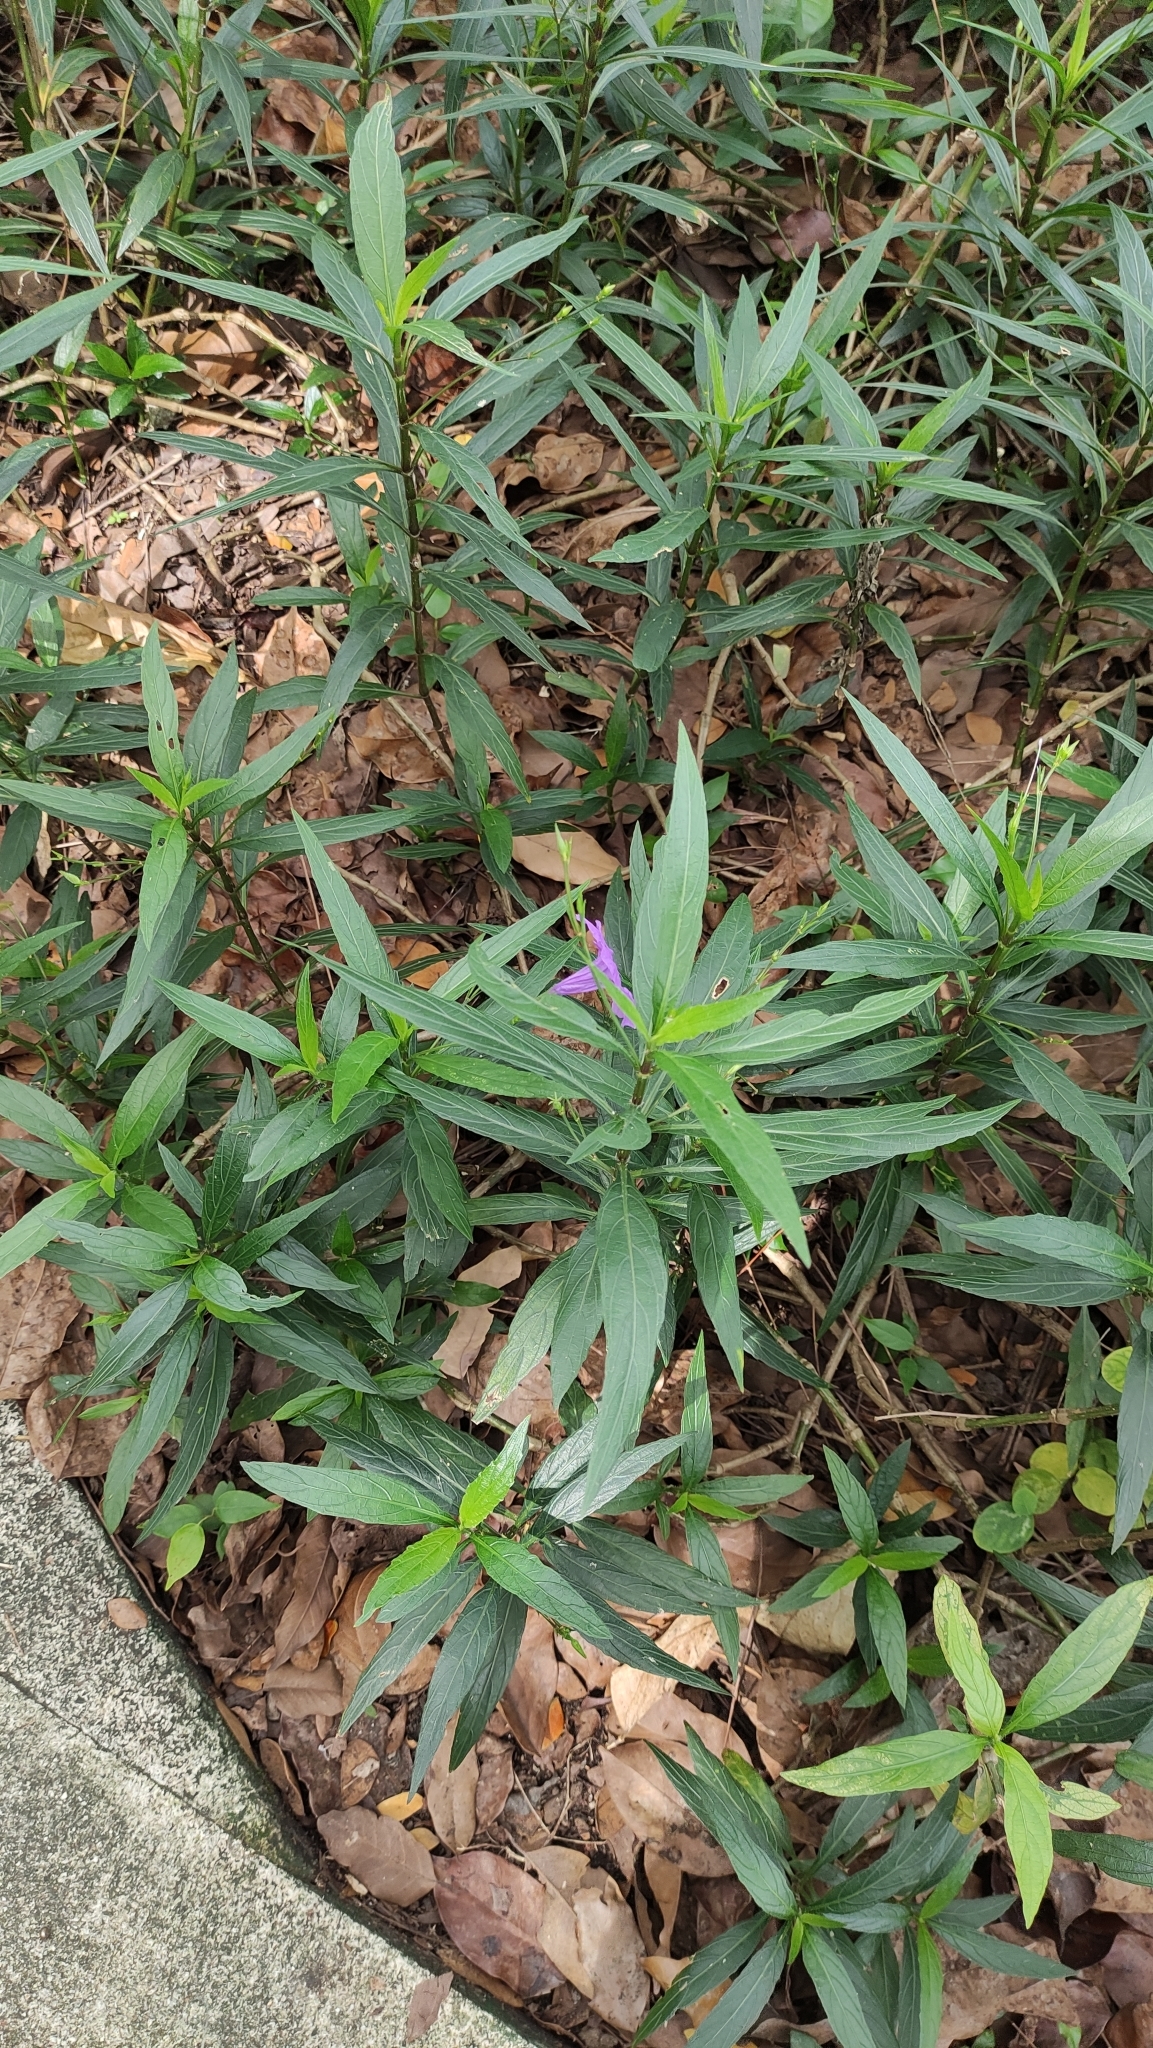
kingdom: Plantae
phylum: Tracheophyta
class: Magnoliopsida
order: Lamiales
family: Acanthaceae
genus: Ruellia
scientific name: Ruellia simplex
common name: Softseed wild petunia
